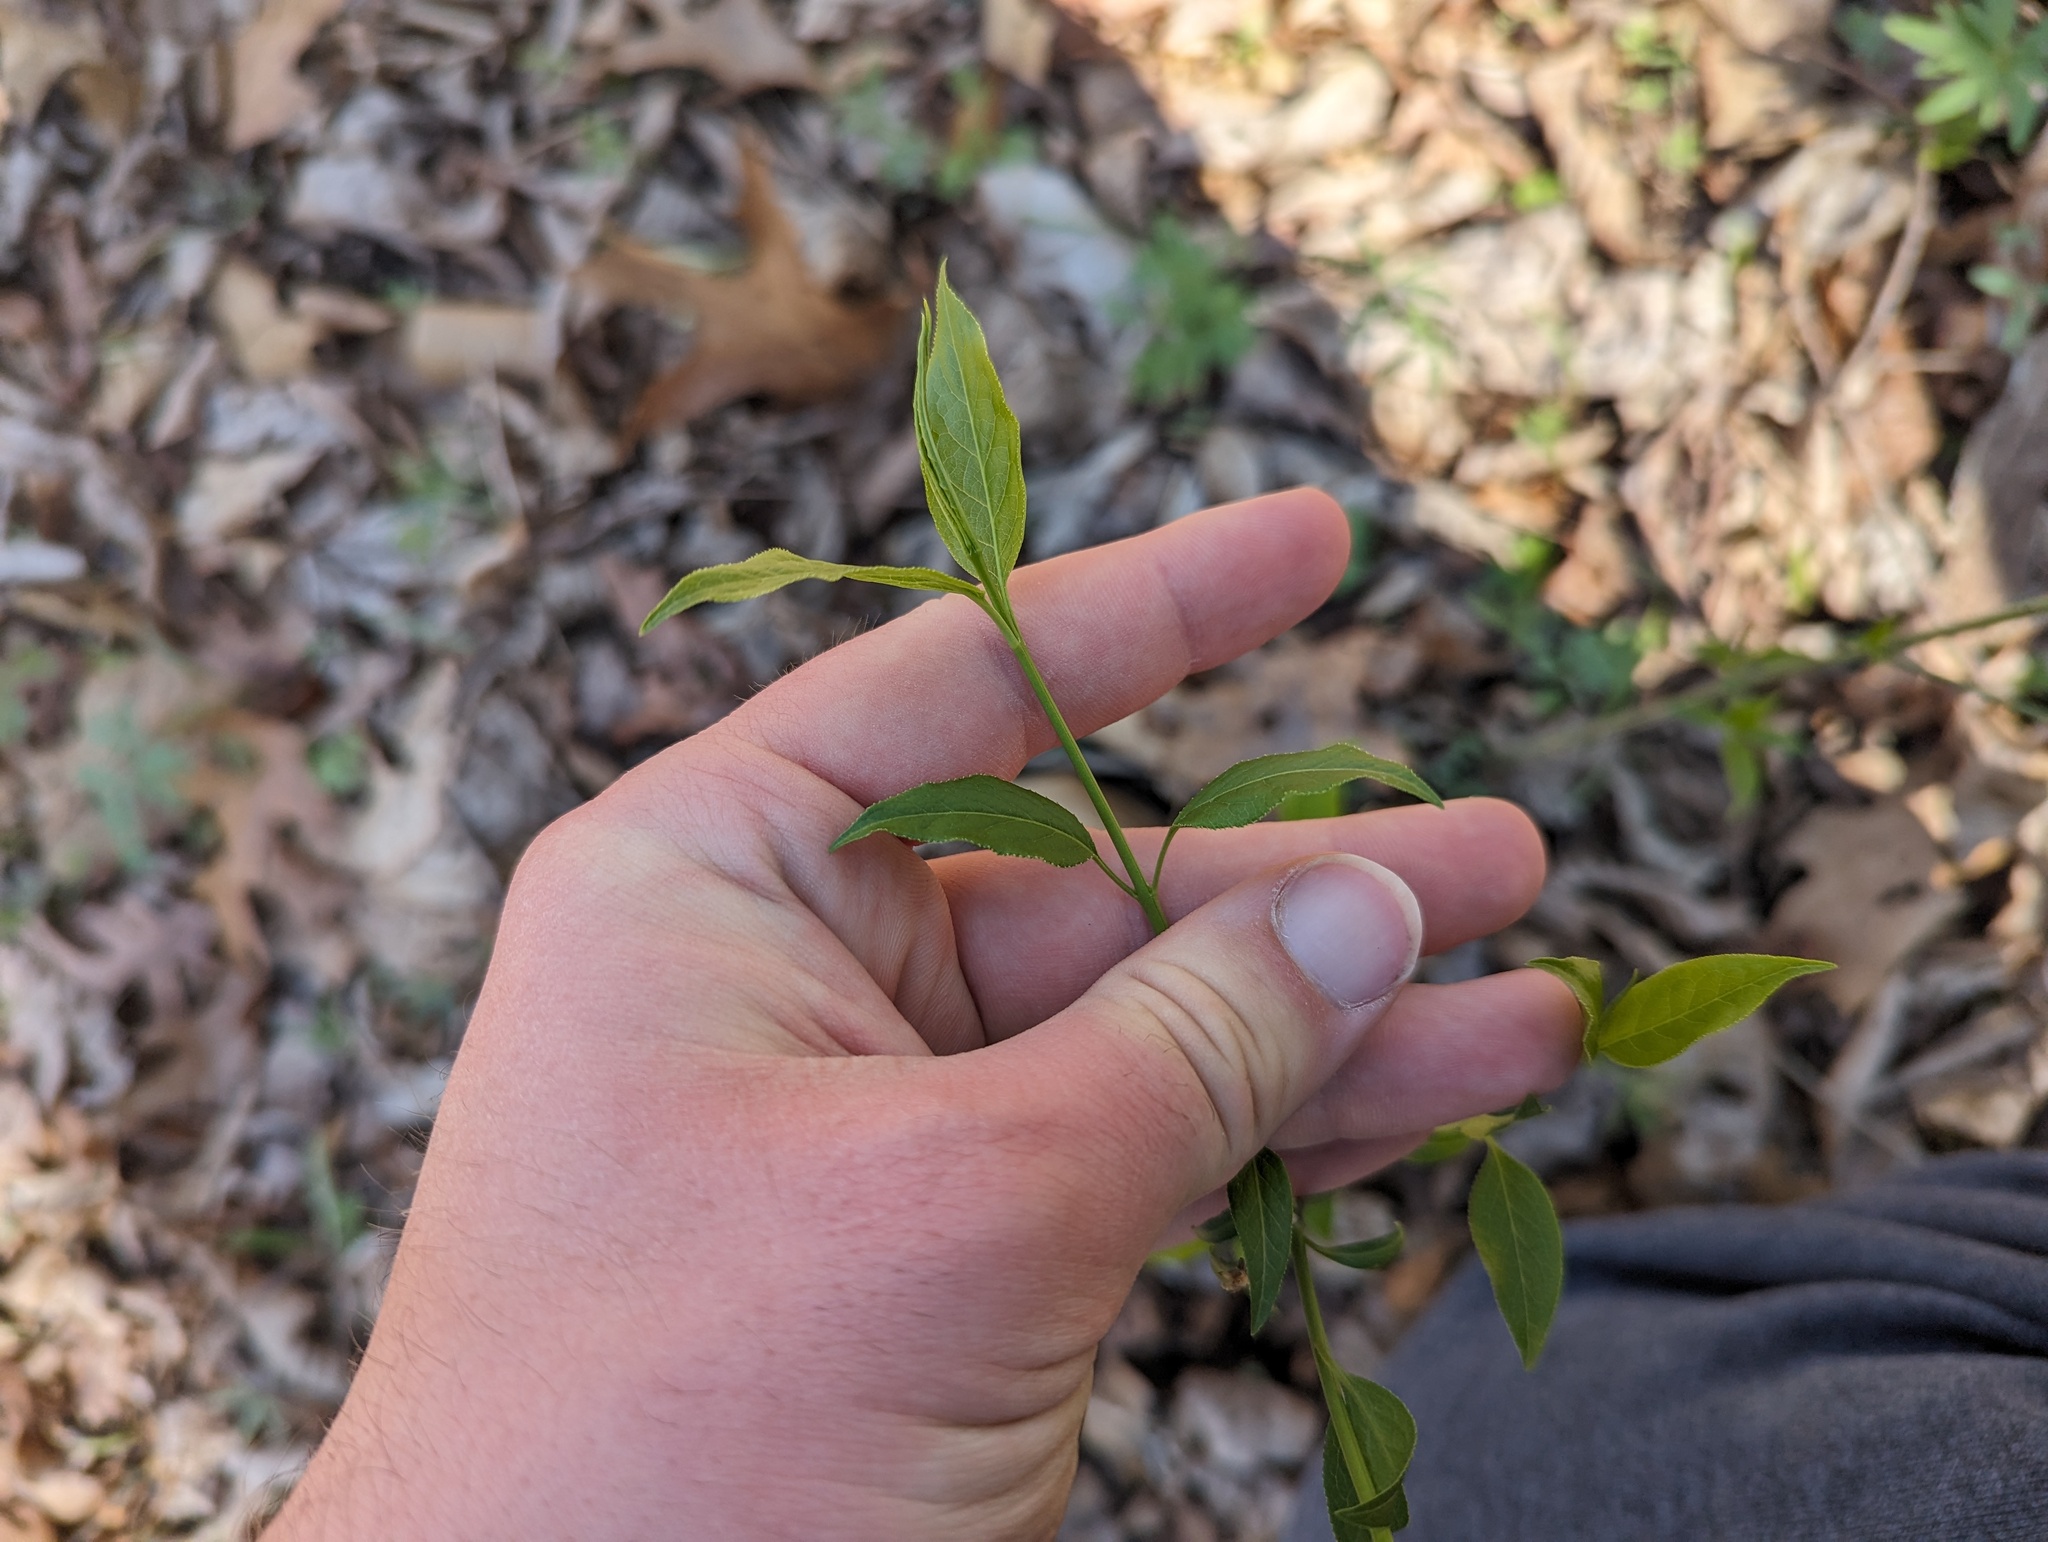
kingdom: Plantae
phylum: Tracheophyta
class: Magnoliopsida
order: Celastrales
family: Celastraceae
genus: Euonymus
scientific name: Euonymus atropurpureus
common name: Eastern wahoo
